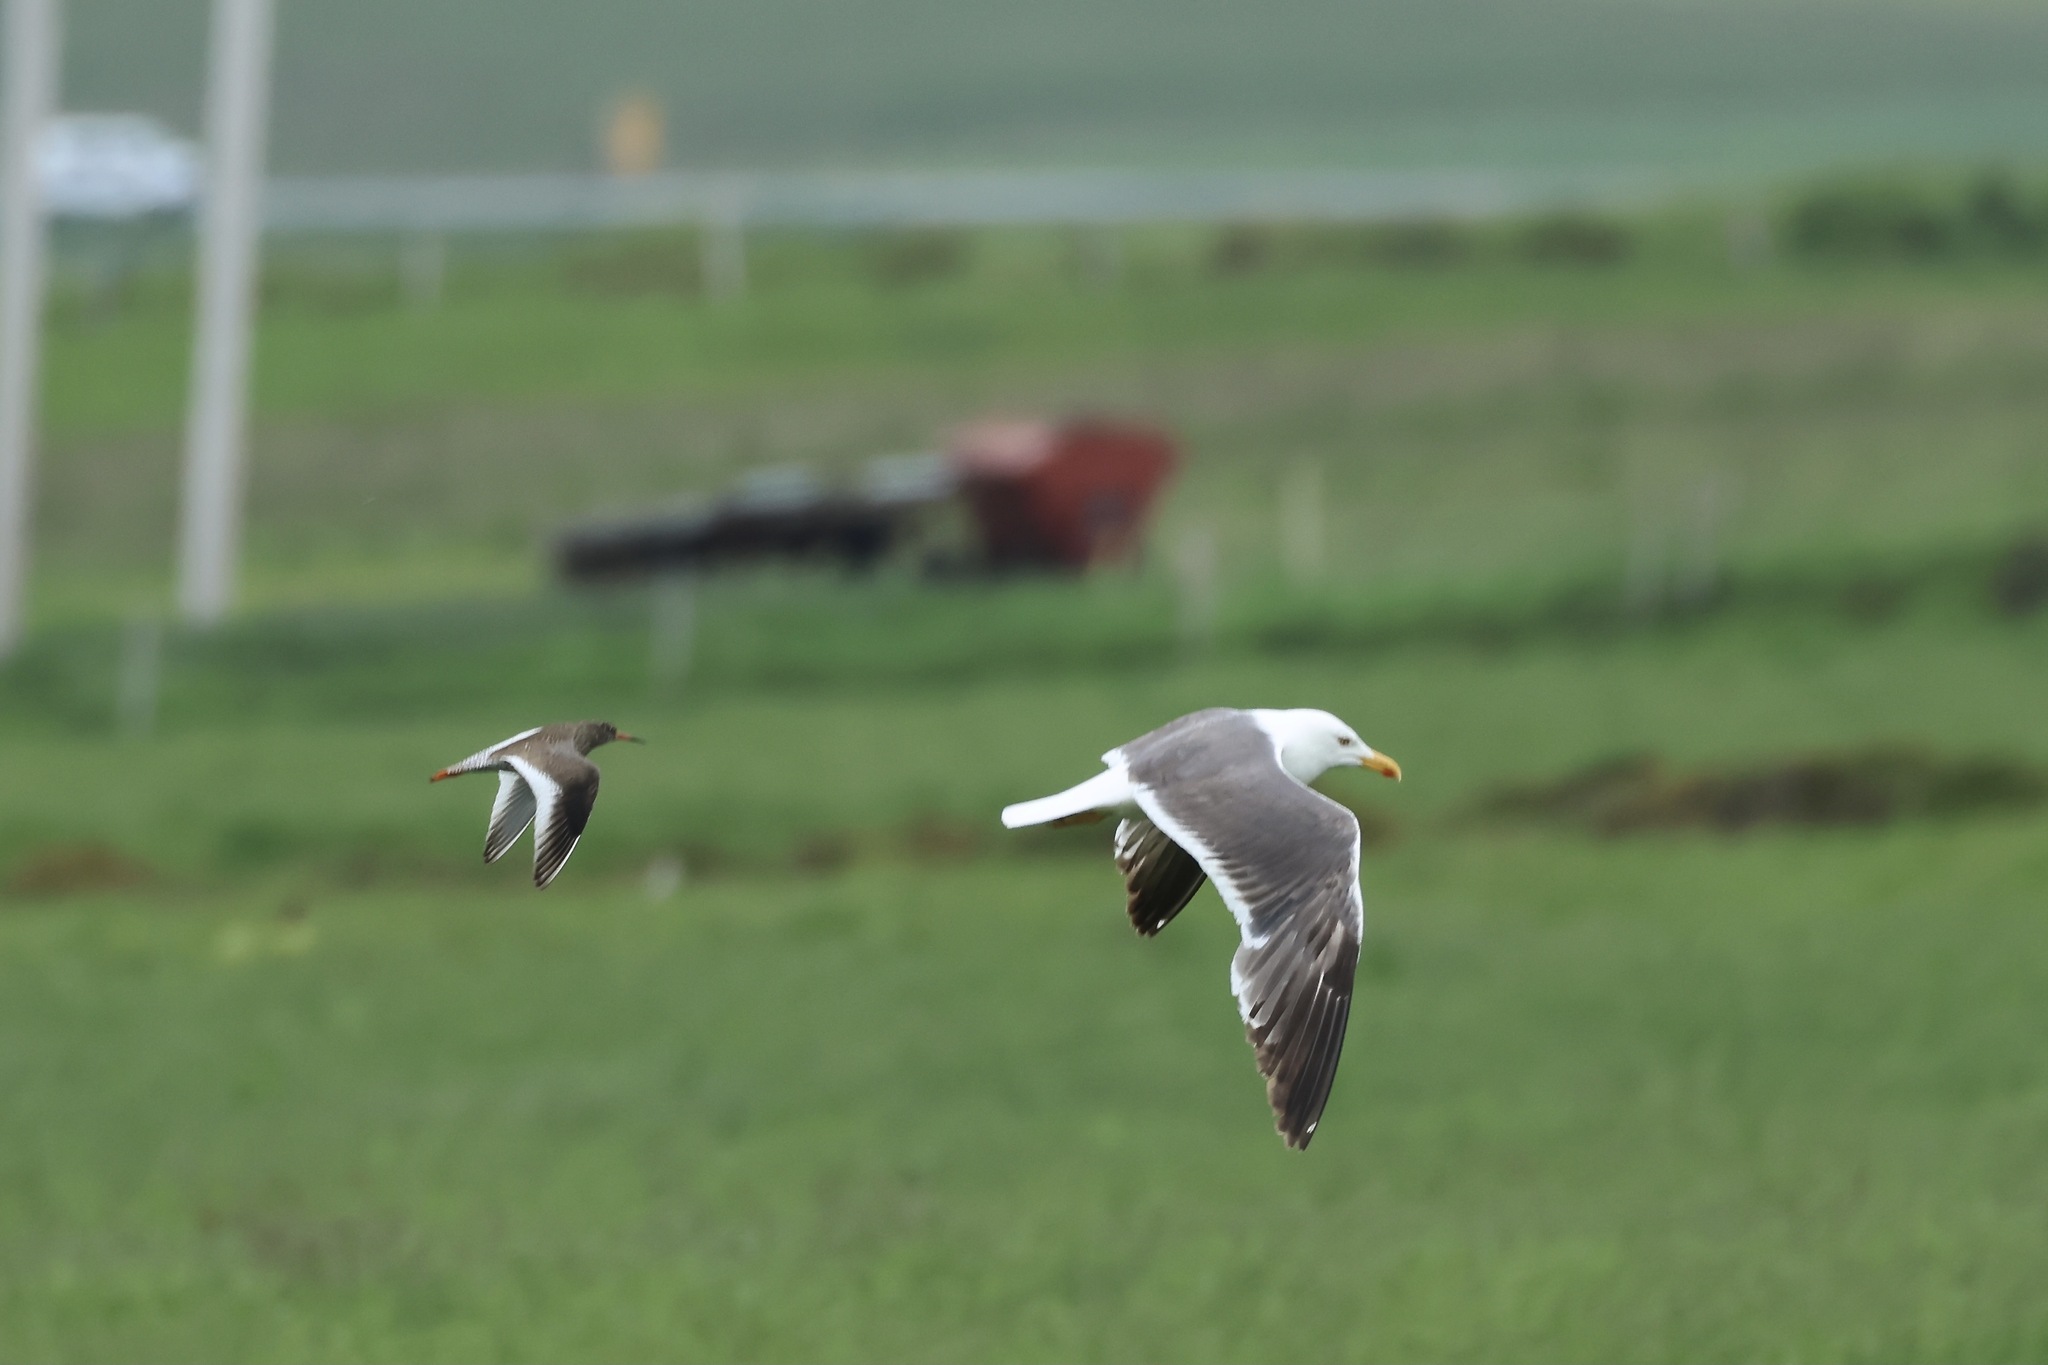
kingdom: Animalia
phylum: Chordata
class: Aves
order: Charadriiformes
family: Laridae
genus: Larus
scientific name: Larus fuscus
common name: Lesser black-backed gull
